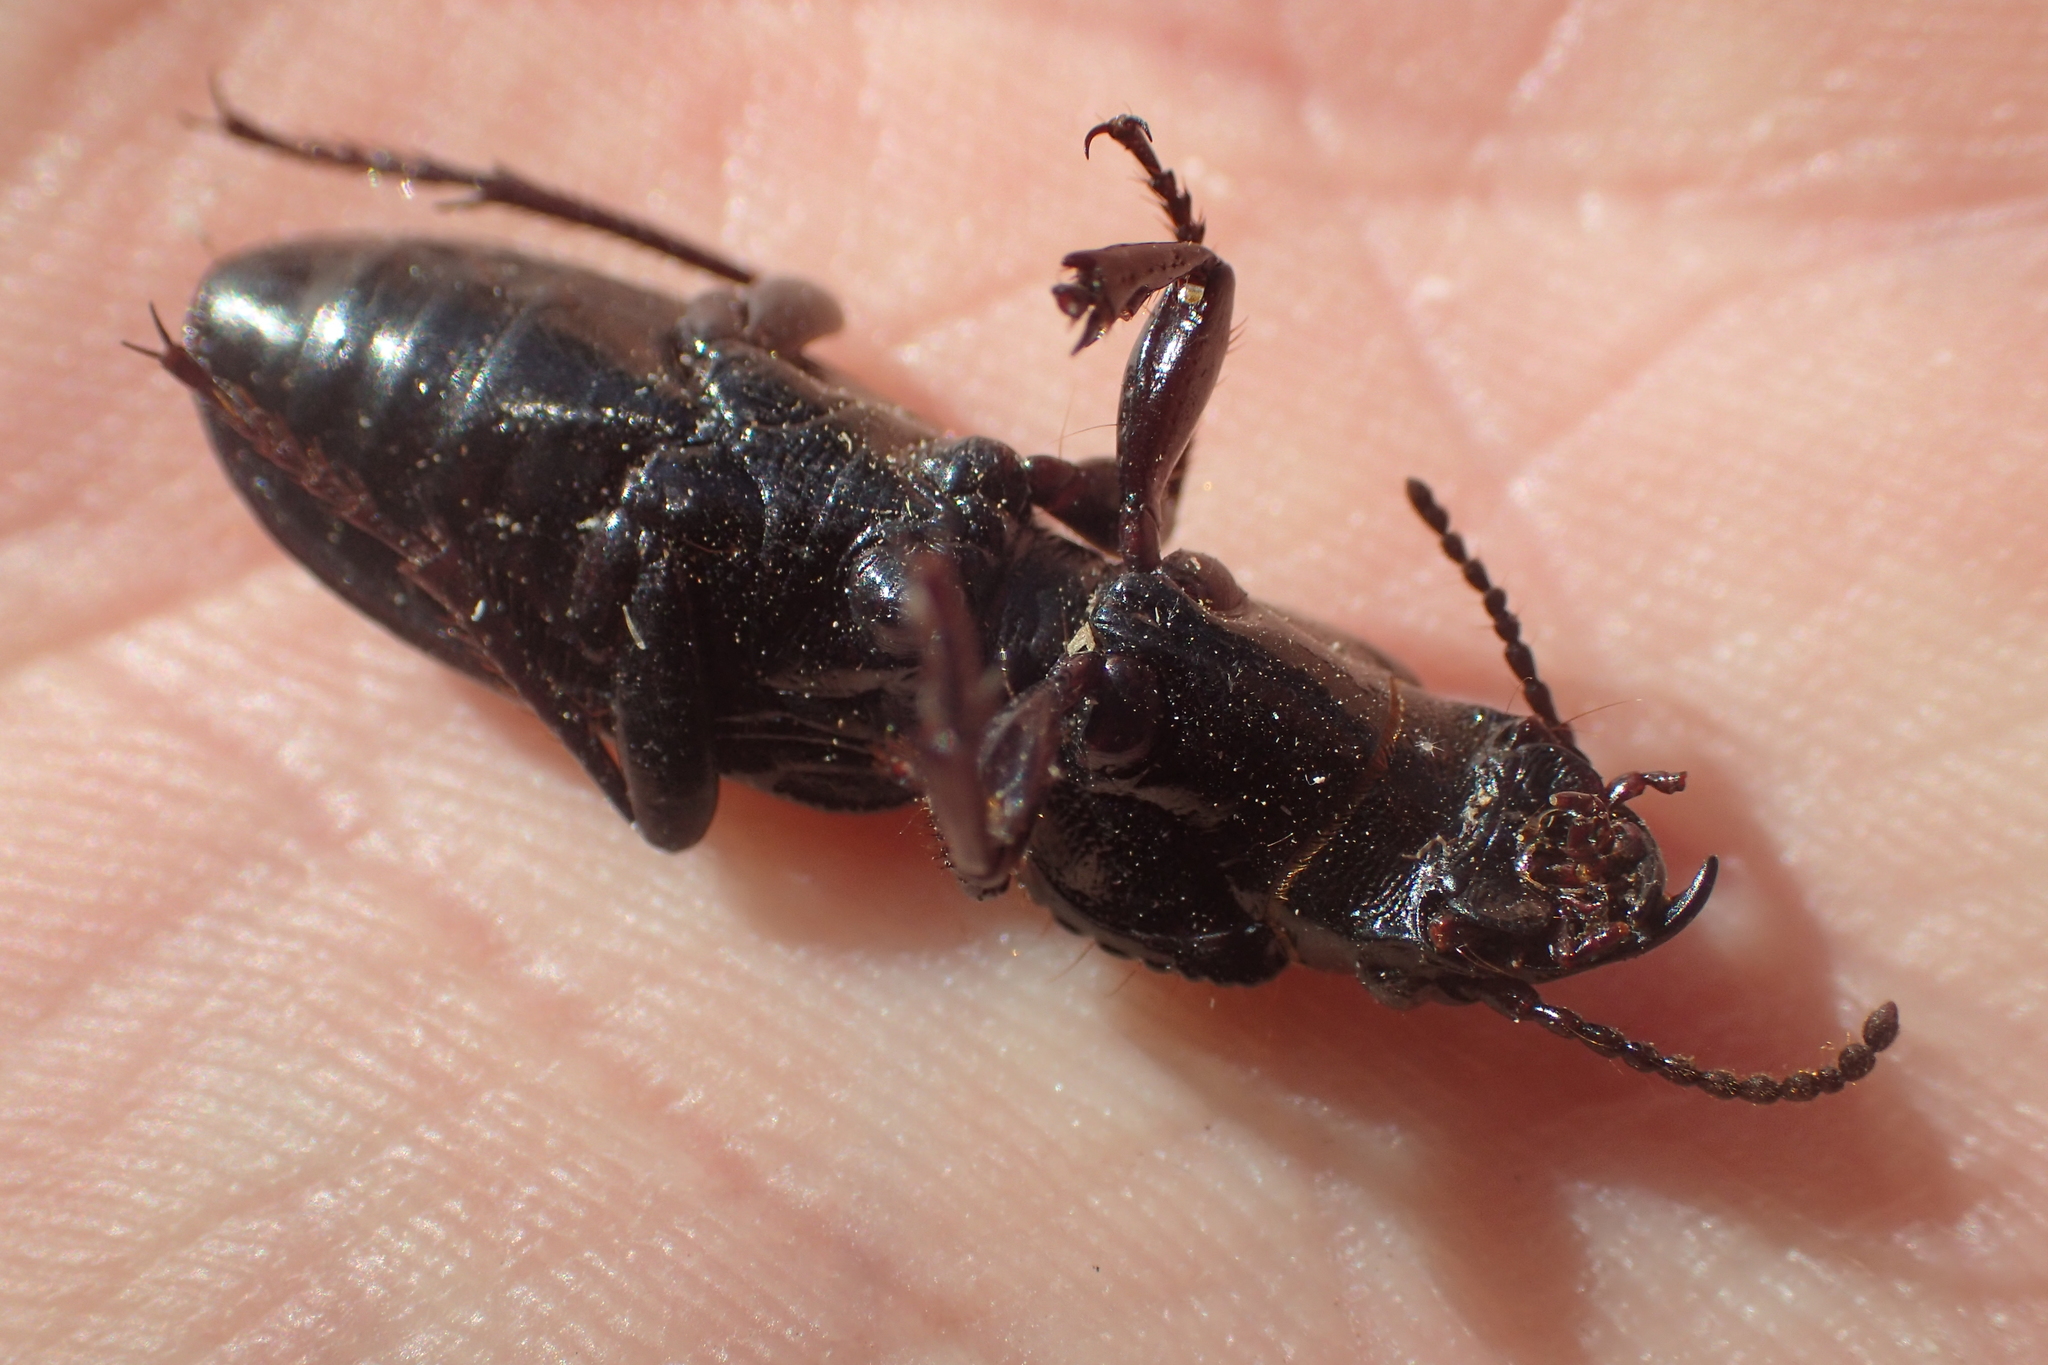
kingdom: Animalia
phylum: Arthropoda
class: Insecta
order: Coleoptera
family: Carabidae
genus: Mecodema
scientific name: Mecodema crenicolle
